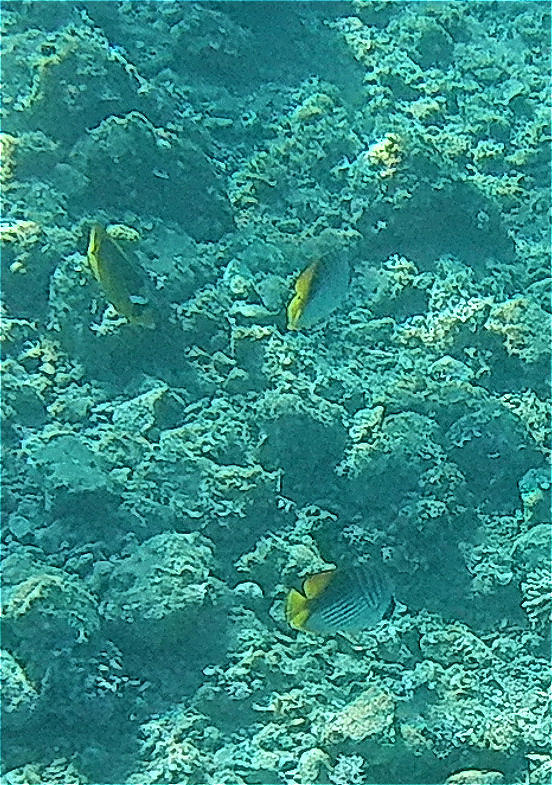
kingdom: Animalia
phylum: Chordata
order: Perciformes
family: Chaetodontidae
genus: Chaetodon
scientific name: Chaetodon auriga
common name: Threadfin butterflyfish
